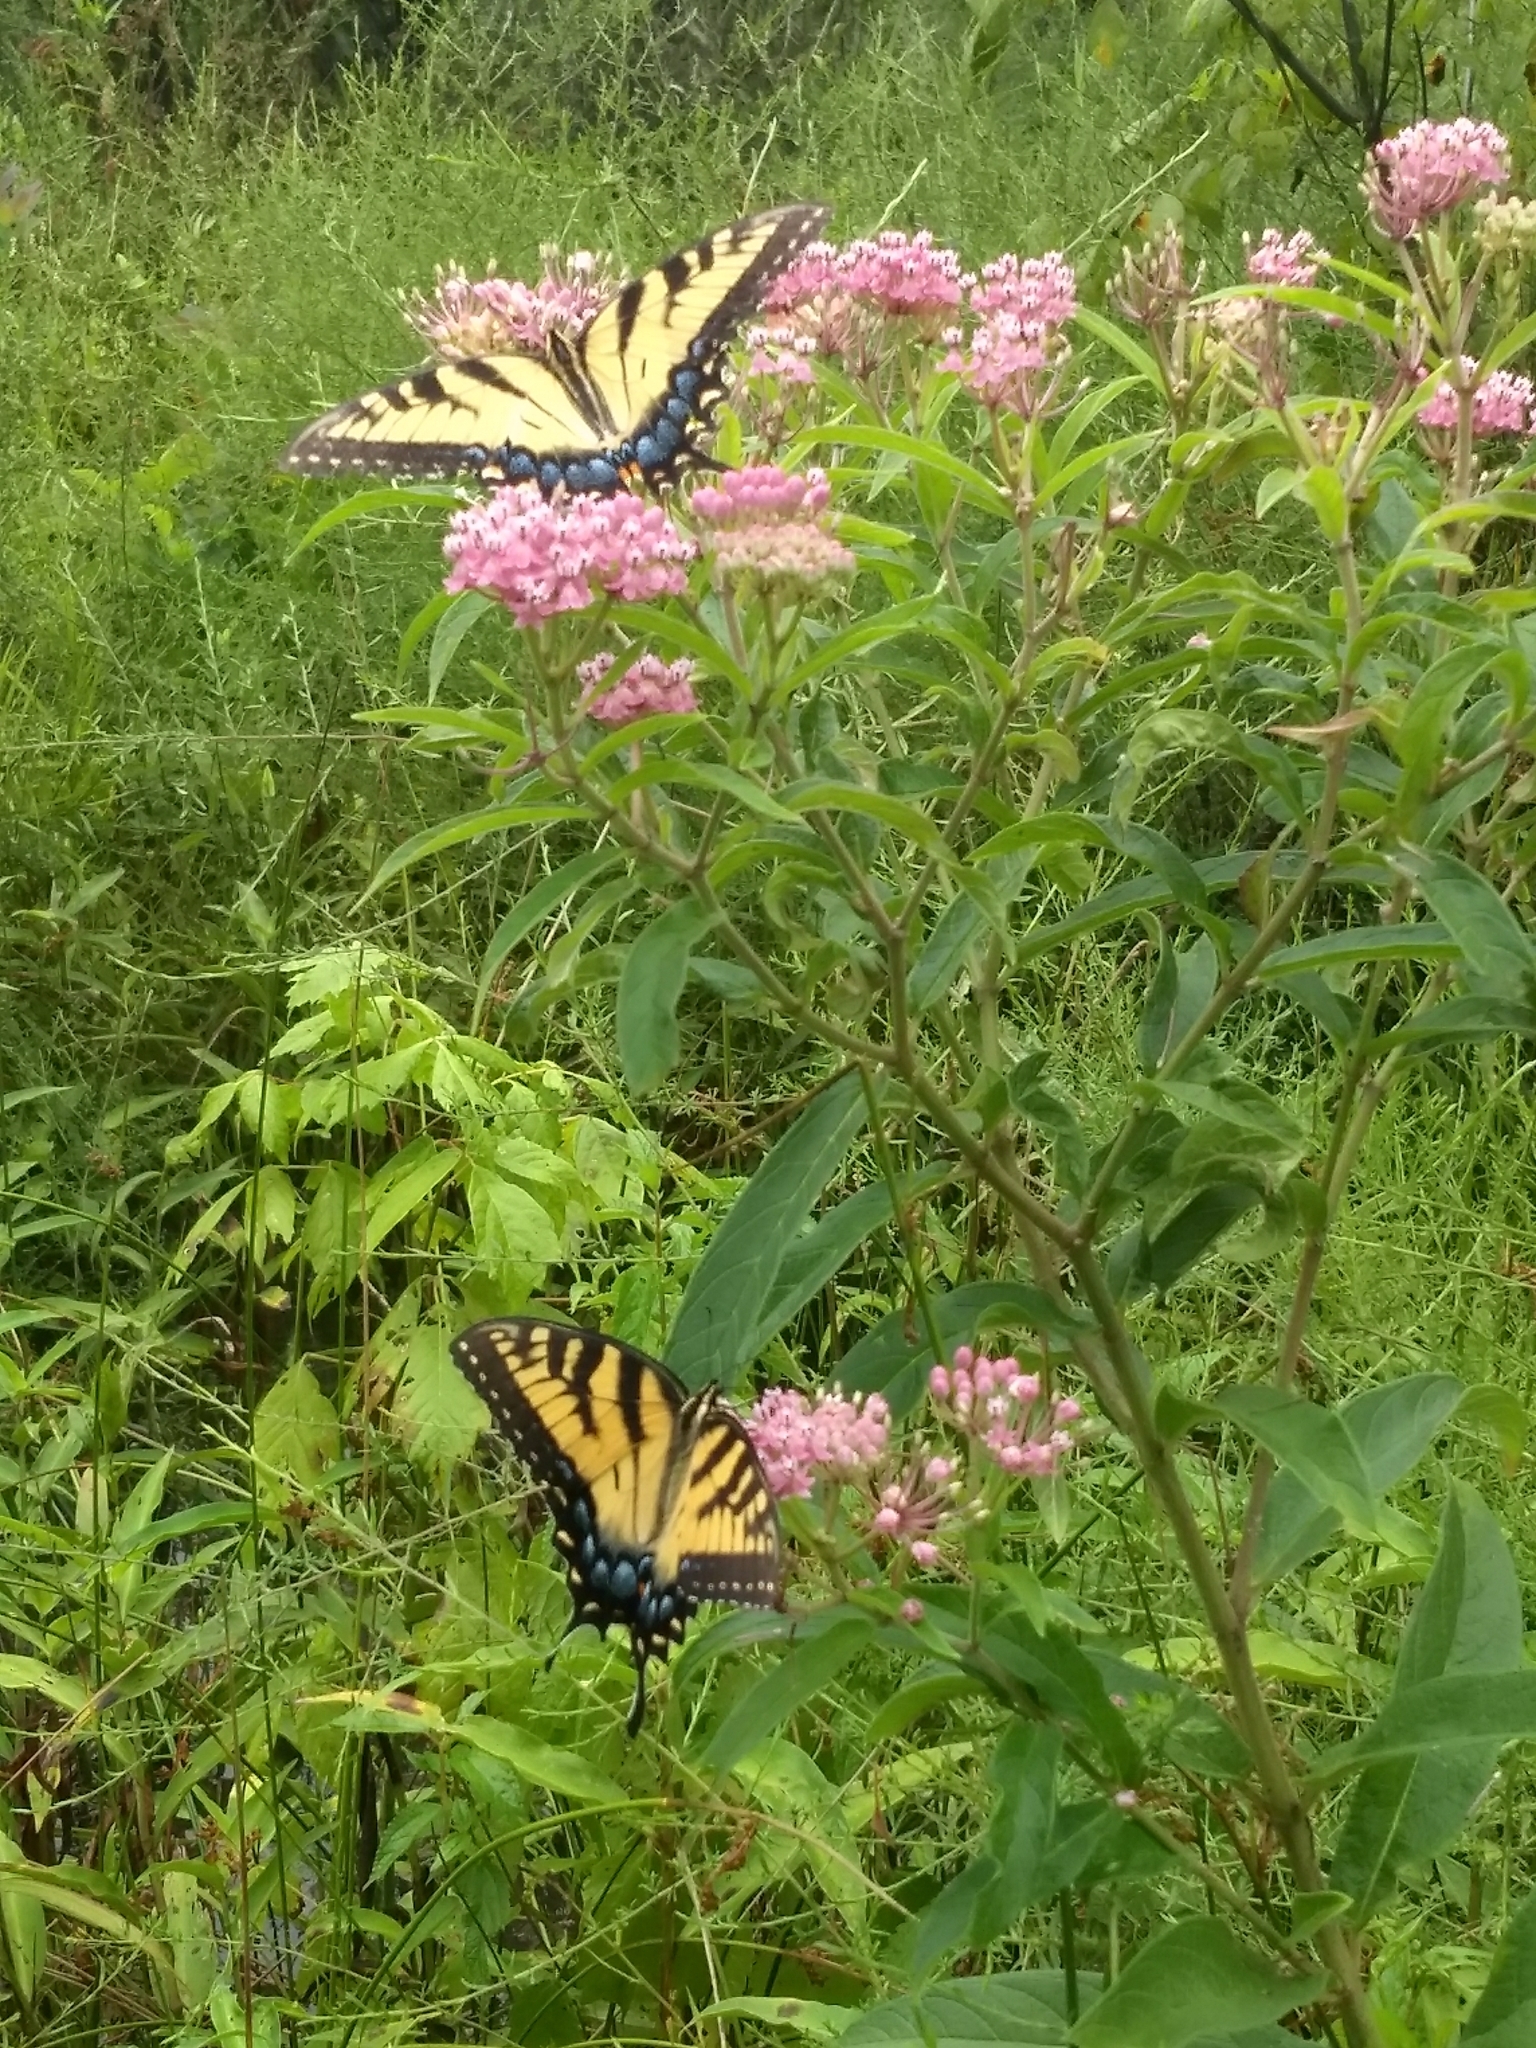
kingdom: Animalia
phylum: Arthropoda
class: Insecta
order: Lepidoptera
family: Papilionidae
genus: Papilio
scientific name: Papilio glaucus
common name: Tiger swallowtail
